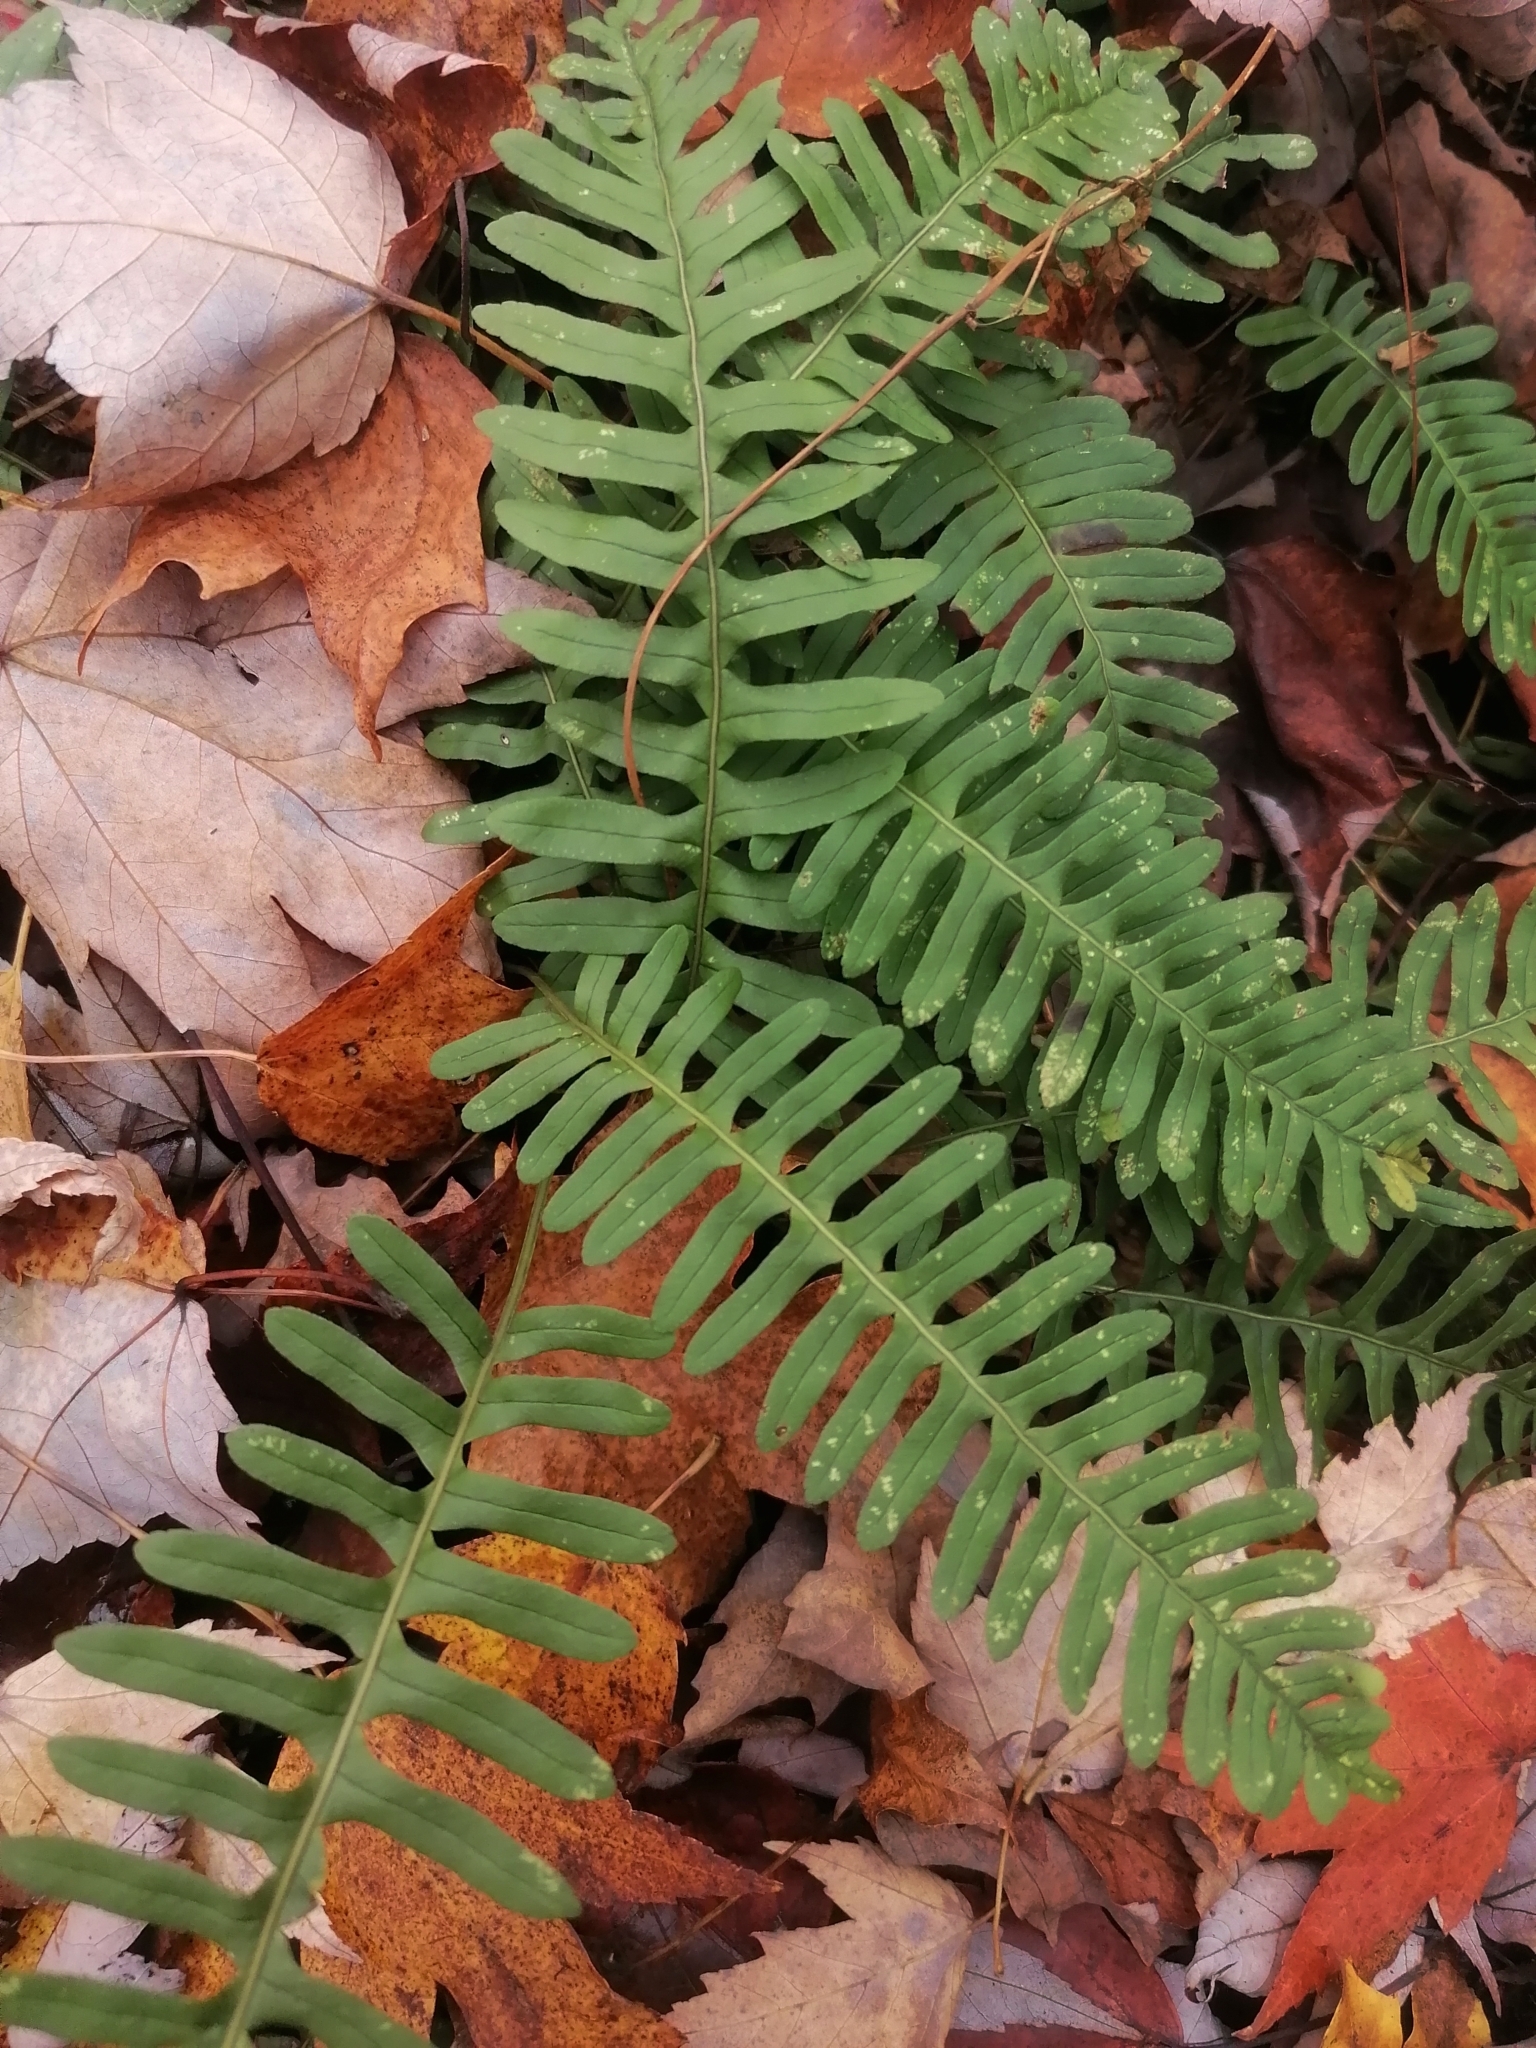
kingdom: Plantae
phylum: Tracheophyta
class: Polypodiopsida
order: Polypodiales
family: Polypodiaceae
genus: Polypodium
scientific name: Polypodium virginianum
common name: American wall fern
